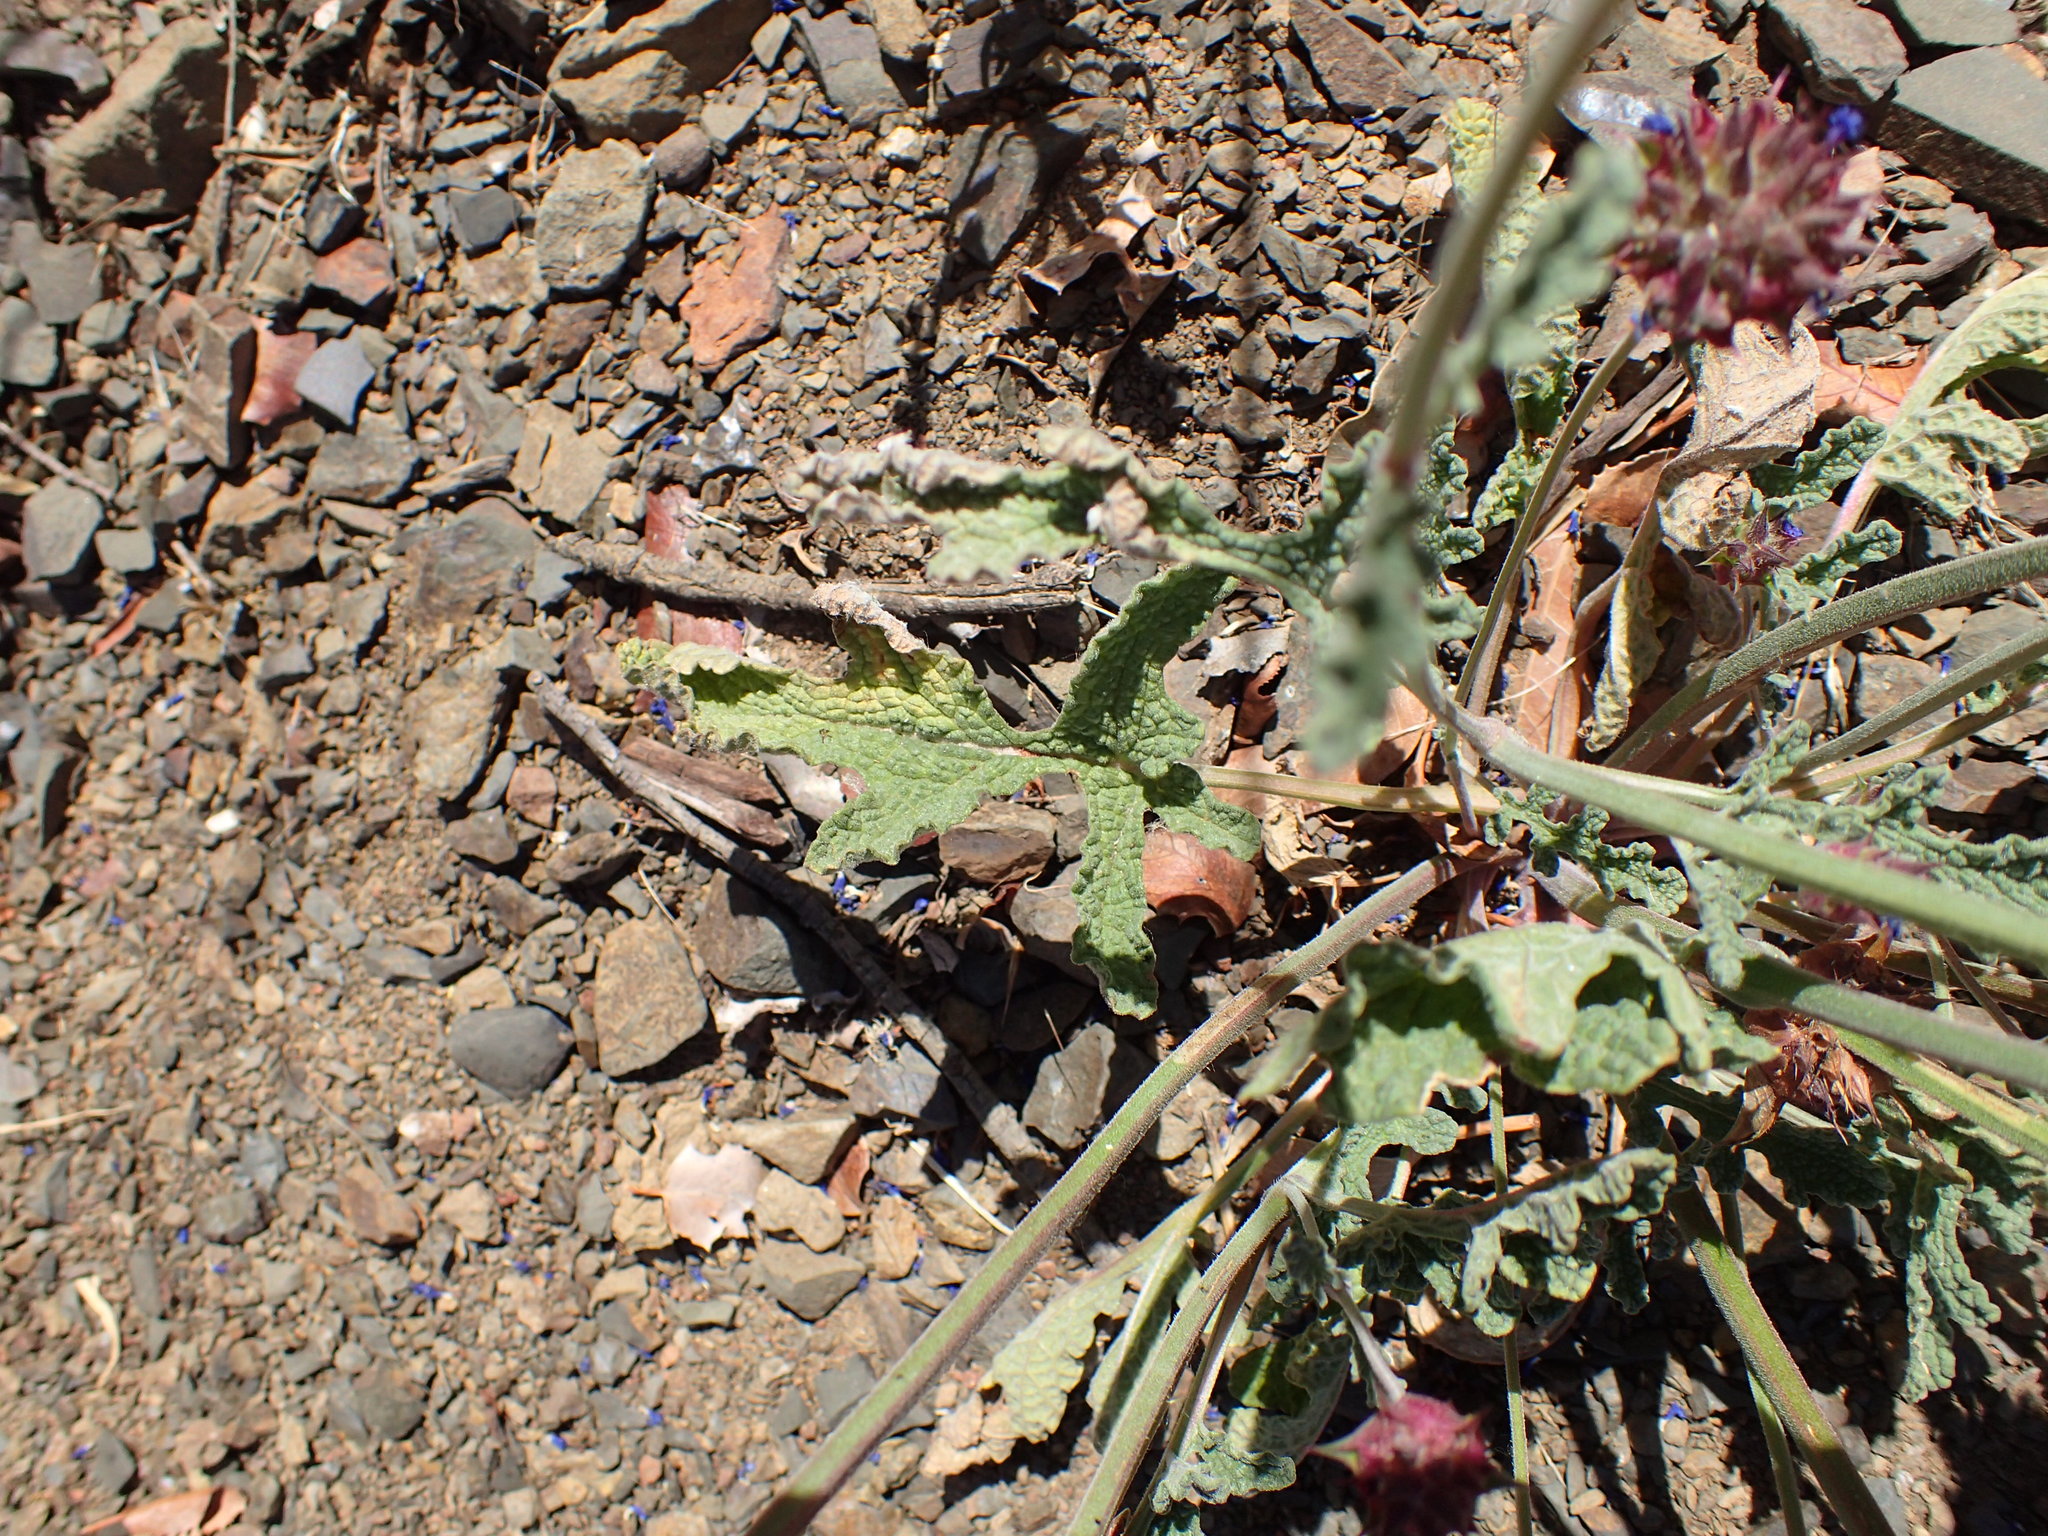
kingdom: Plantae
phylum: Tracheophyta
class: Magnoliopsida
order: Lamiales
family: Lamiaceae
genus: Salvia
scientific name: Salvia columbariae
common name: Chia
